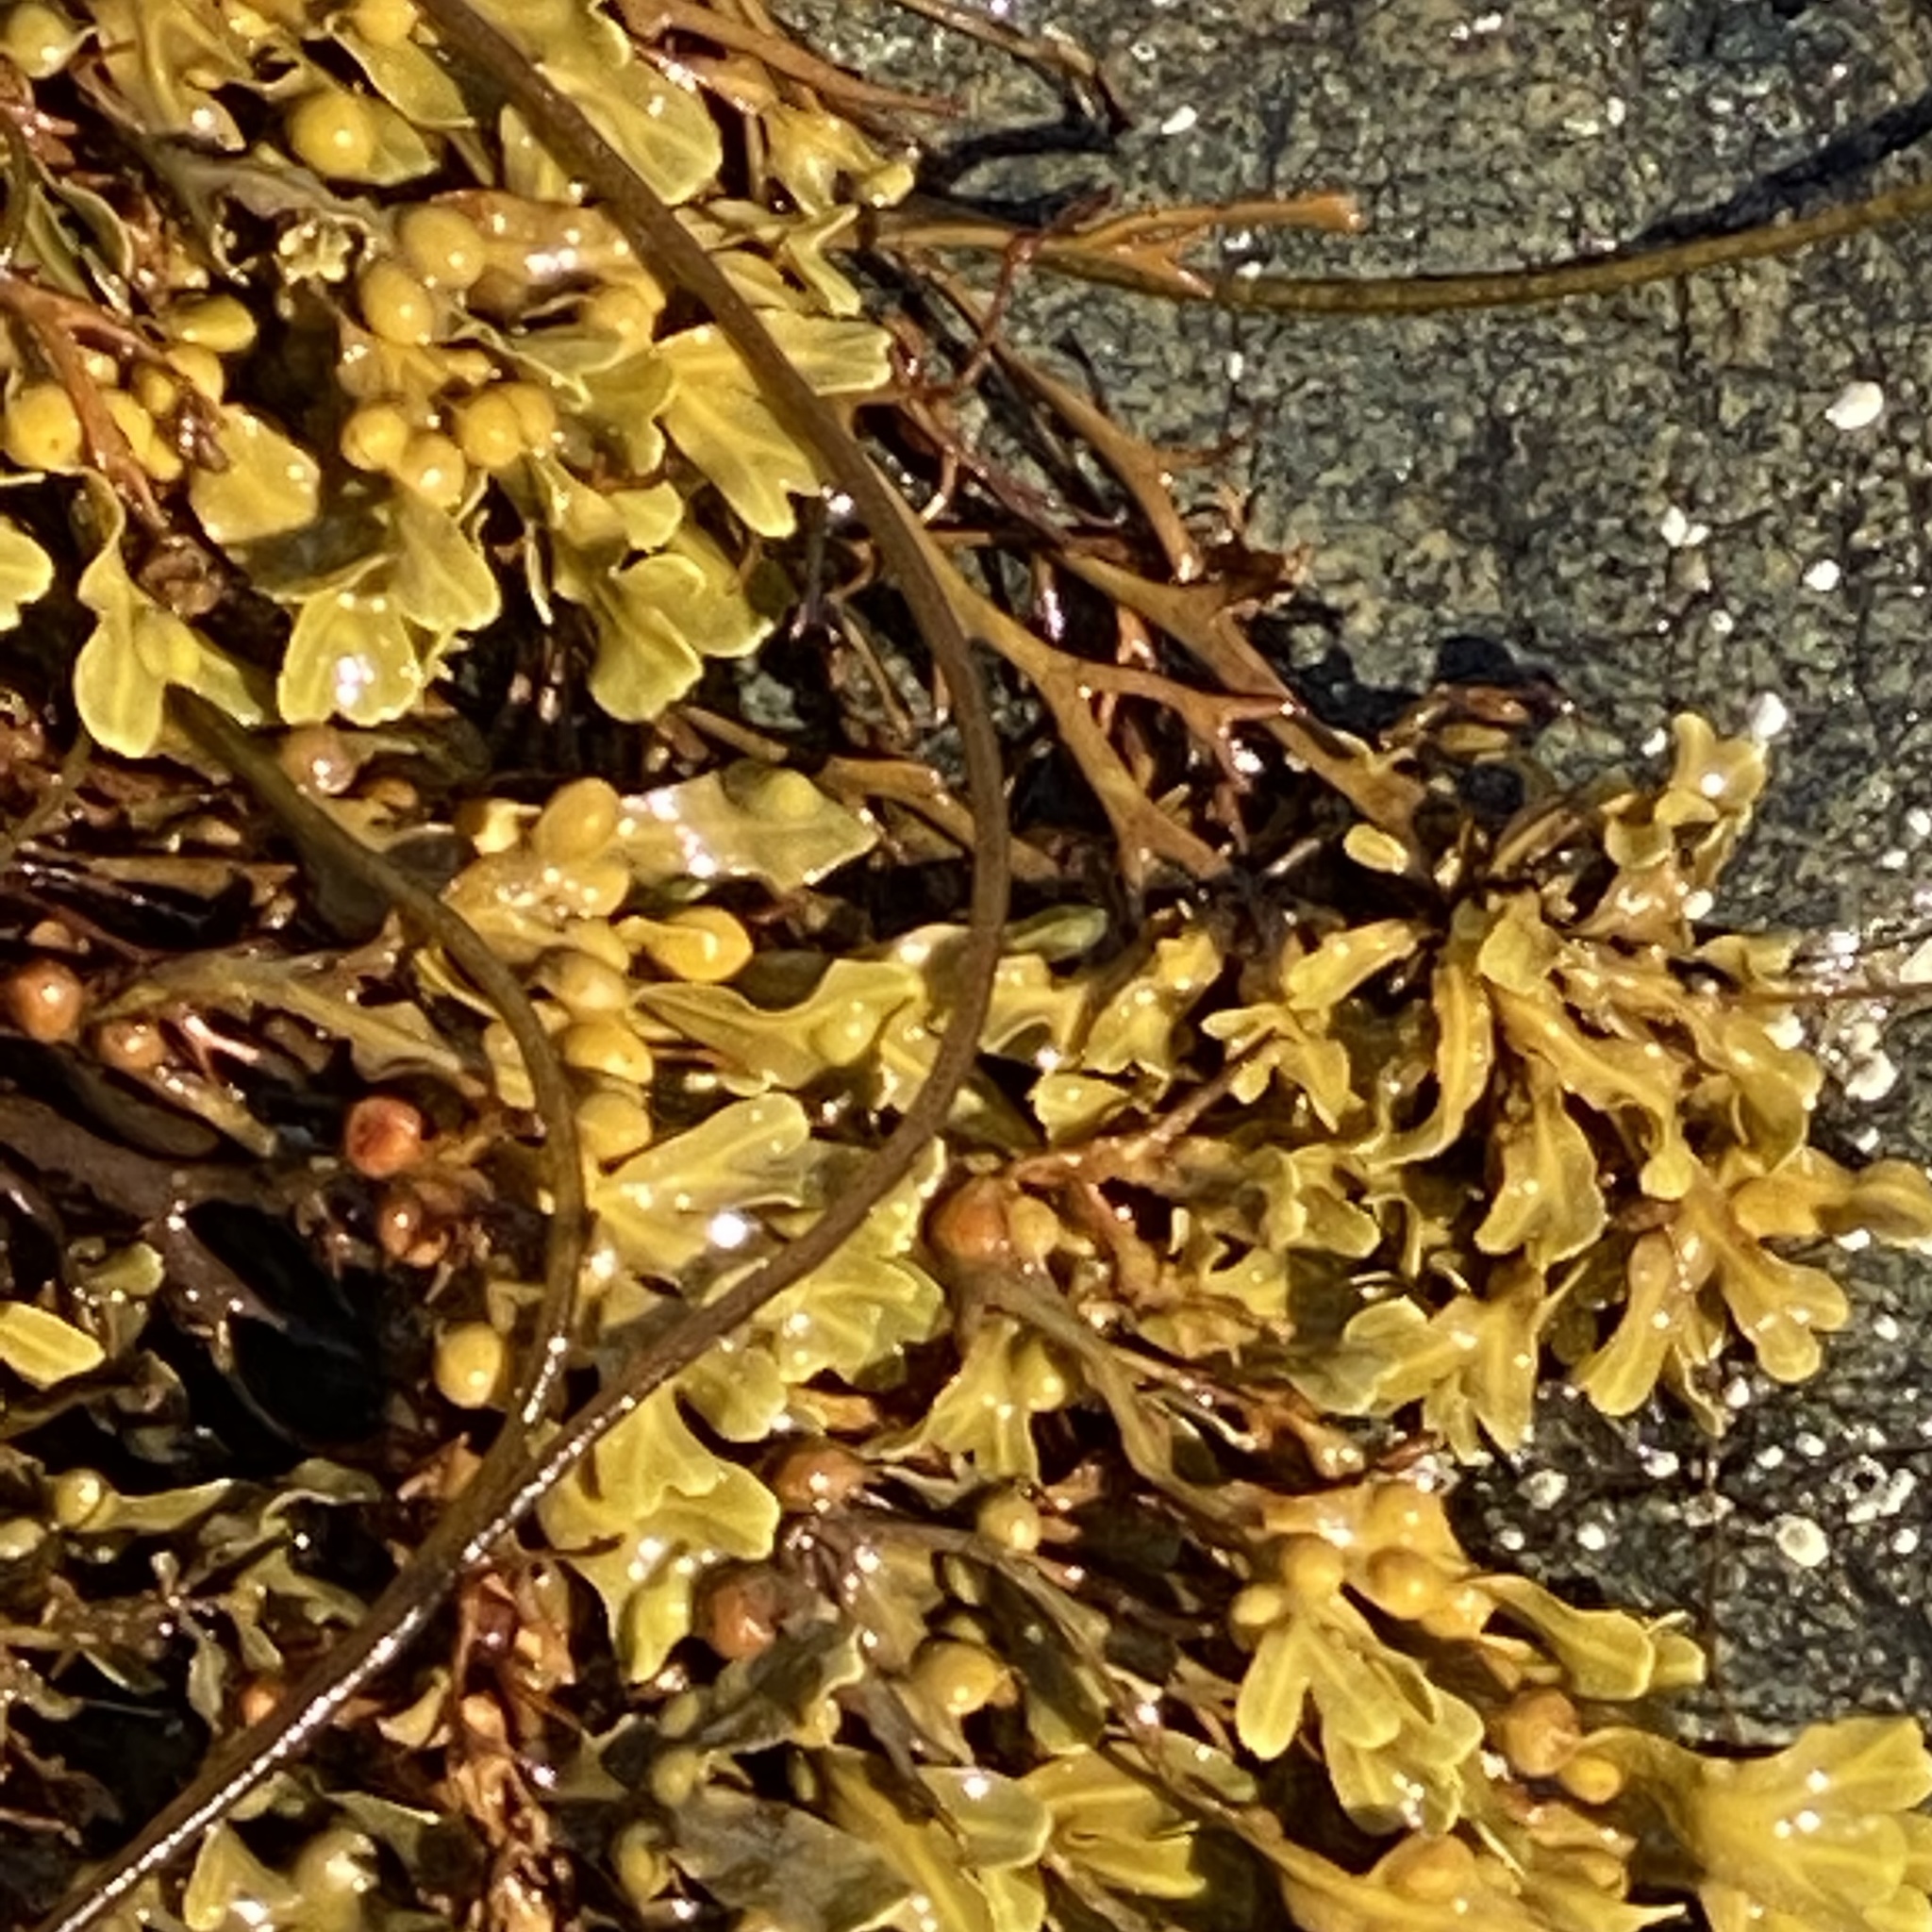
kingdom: Chromista
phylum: Ochrophyta
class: Phaeophyceae
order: Fucales
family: Fucaceae
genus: Fucus
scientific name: Fucus vesiculosus
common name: Bladder wrack
